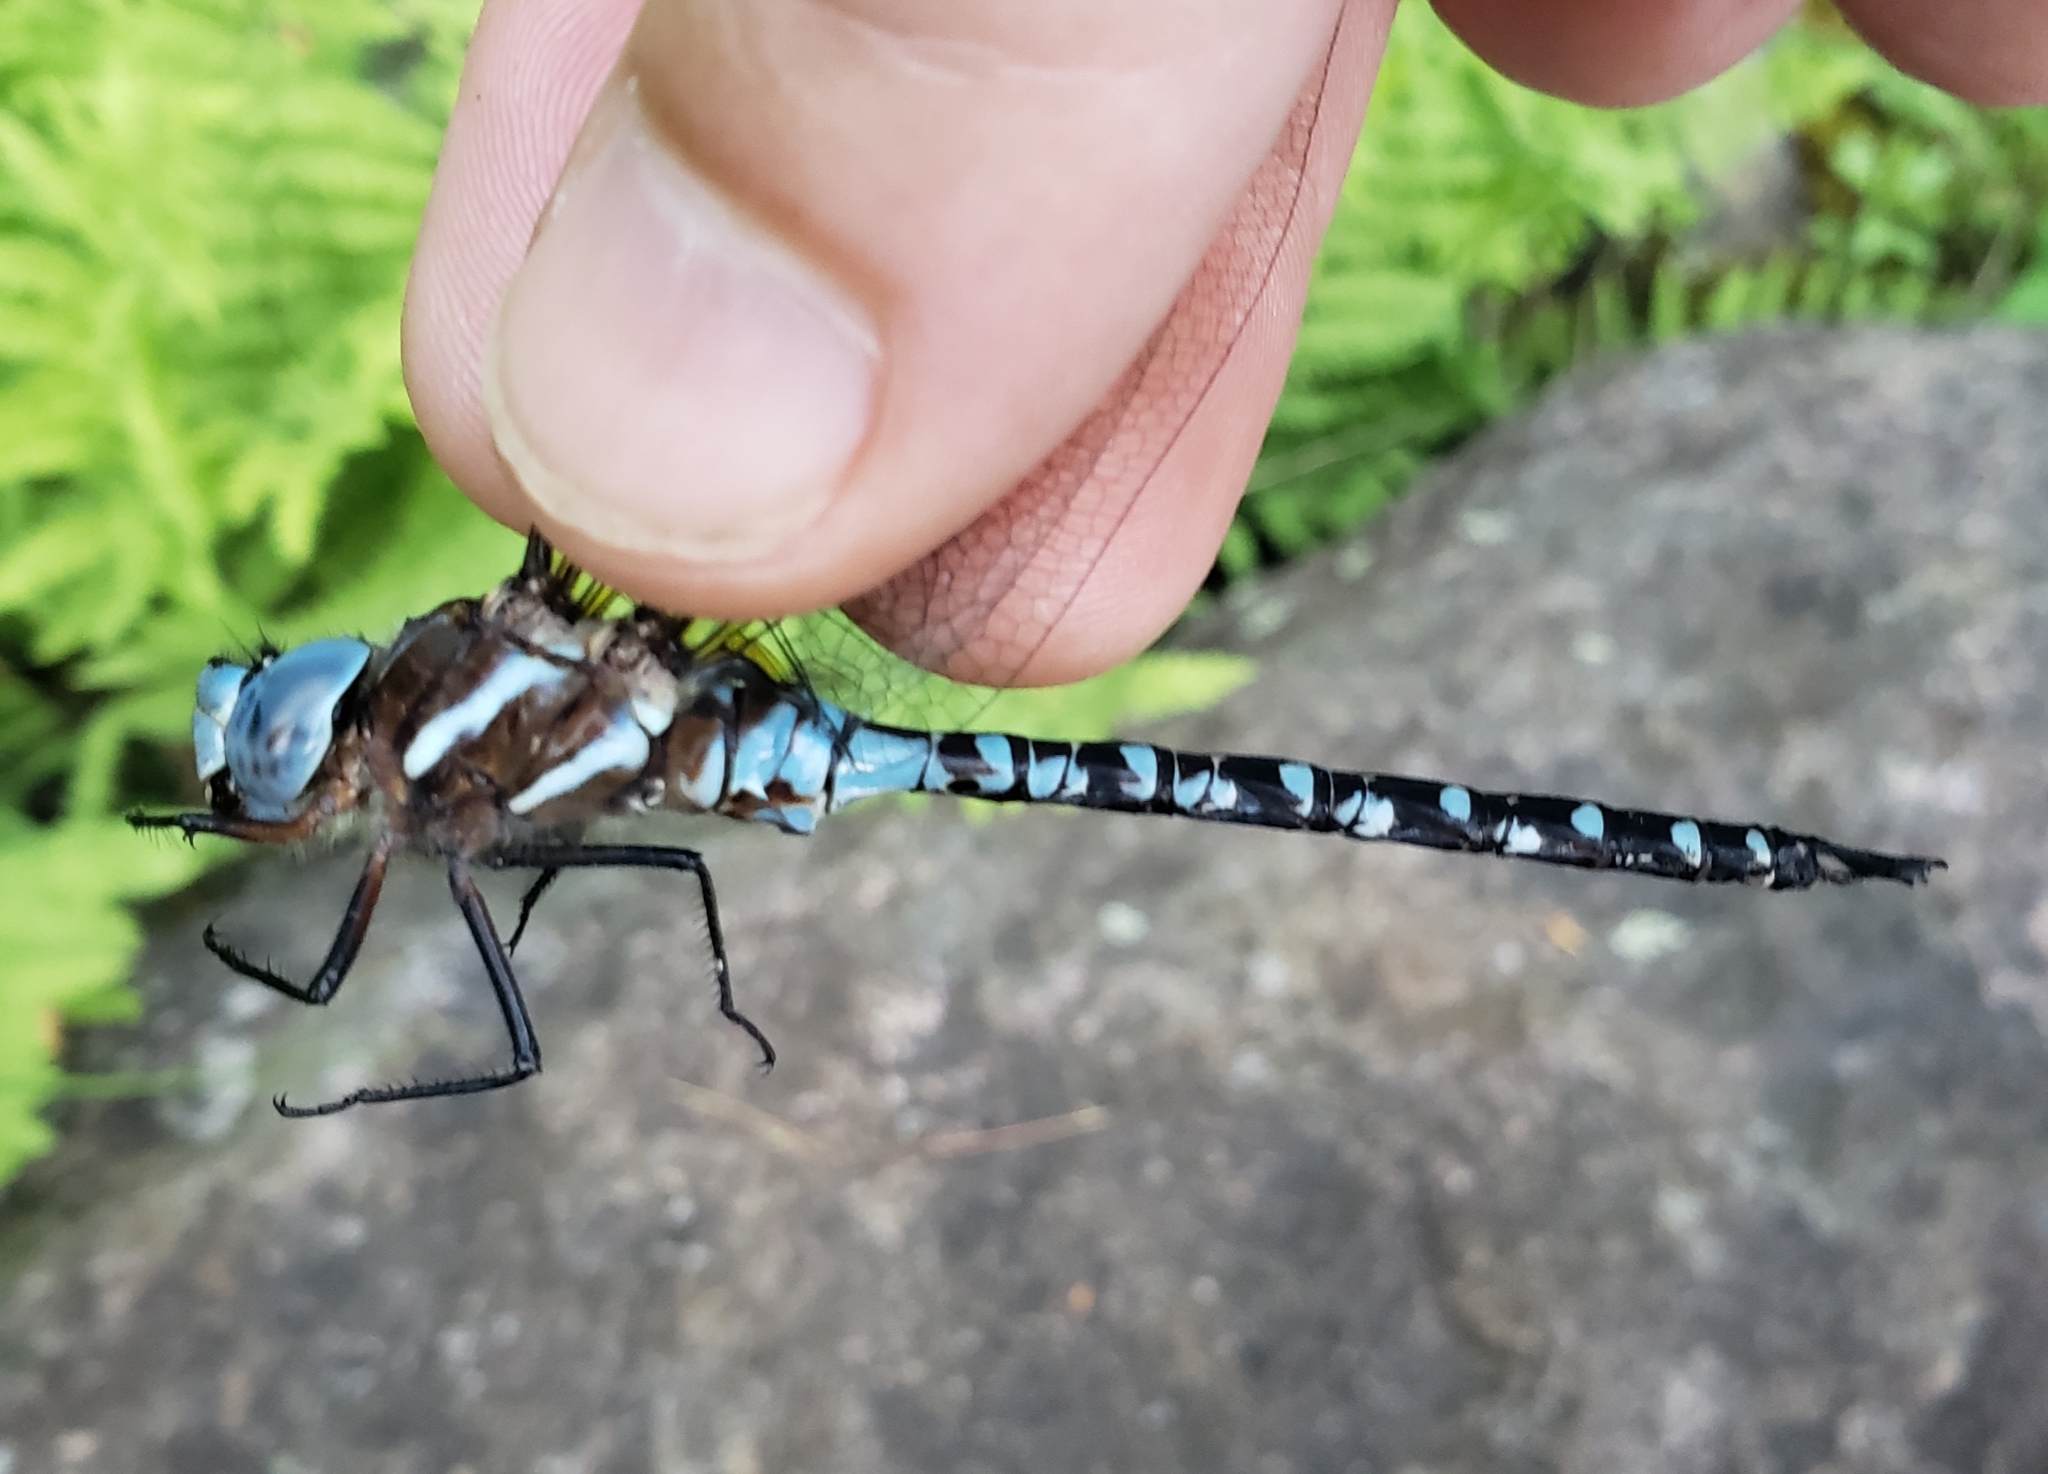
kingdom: Animalia
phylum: Arthropoda
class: Insecta
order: Odonata
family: Aeshnidae
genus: Rhionaeschna
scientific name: Rhionaeschna mutata
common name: Spatterdock darner
